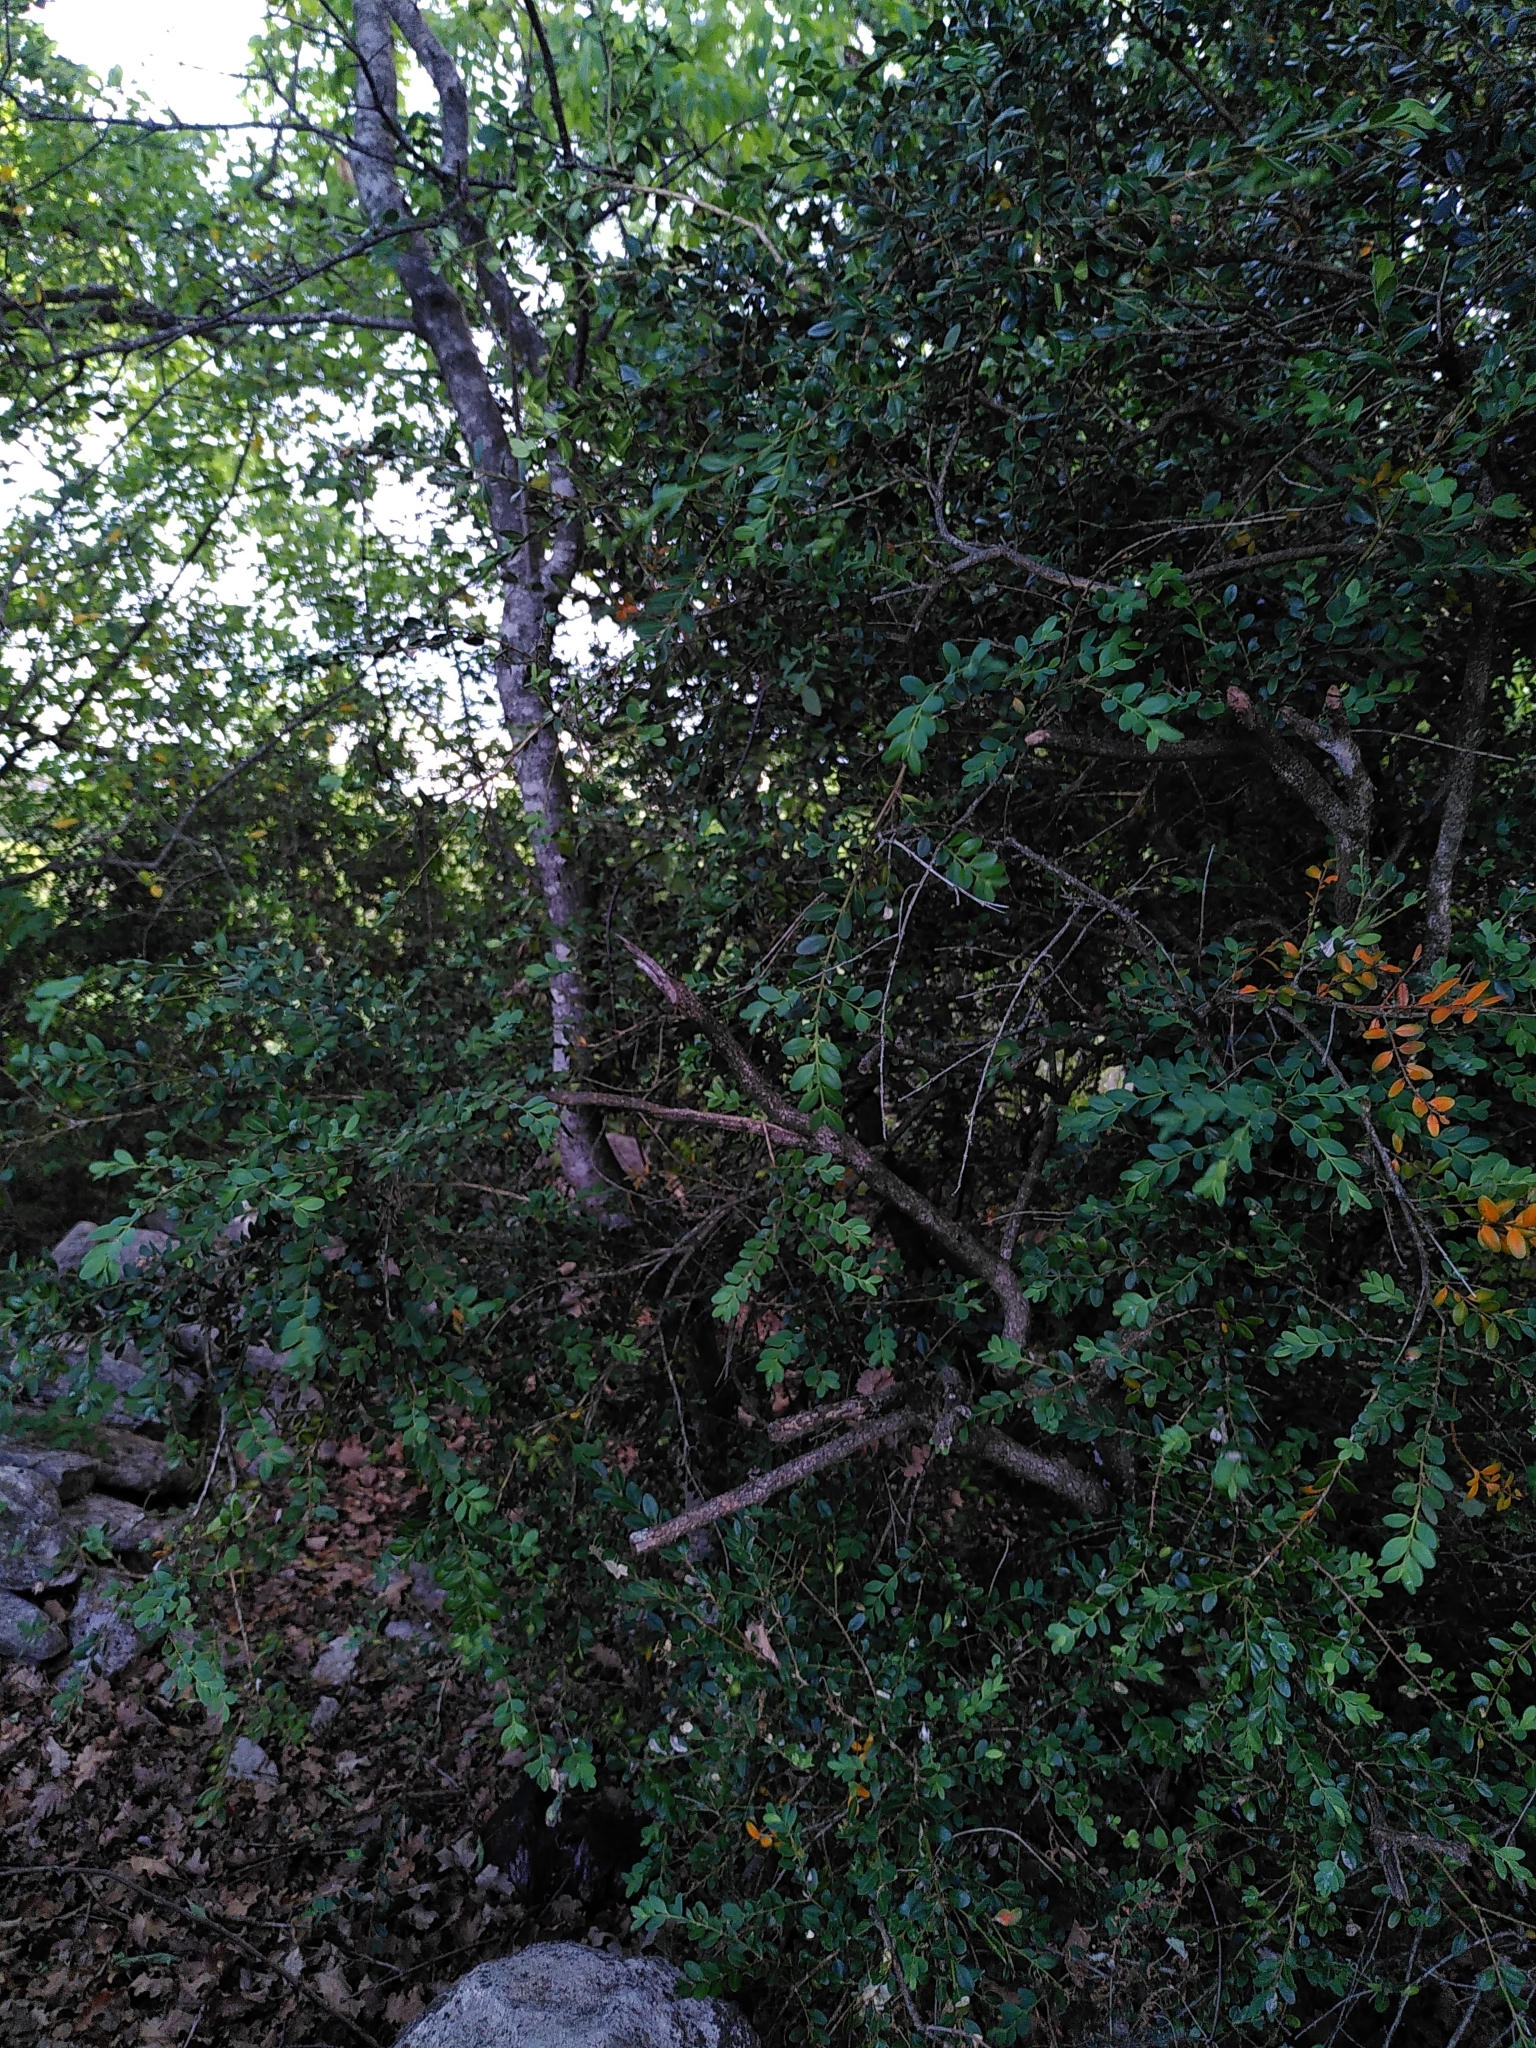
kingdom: Plantae
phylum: Tracheophyta
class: Magnoliopsida
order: Buxales
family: Buxaceae
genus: Buxus
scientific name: Buxus sempervirens
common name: Box
